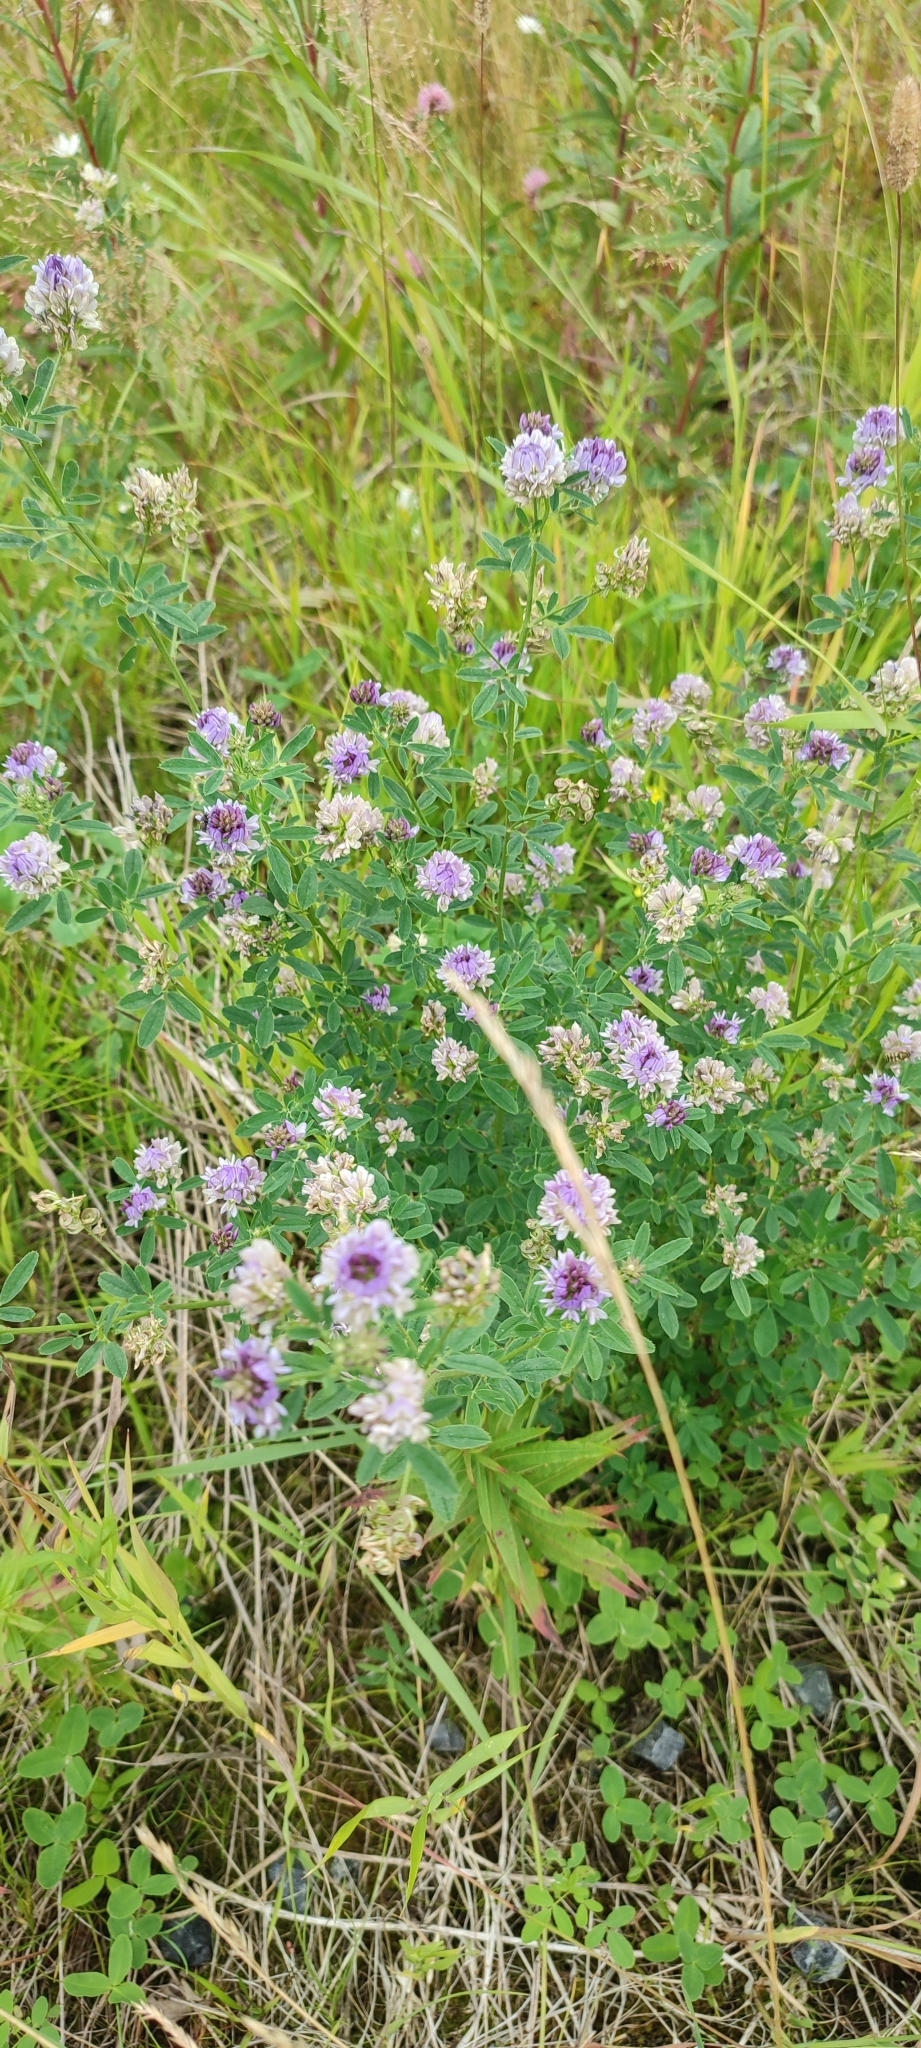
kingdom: Plantae
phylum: Tracheophyta
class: Magnoliopsida
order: Fabales
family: Fabaceae
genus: Medicago
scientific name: Medicago varia
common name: Sand lucerne
